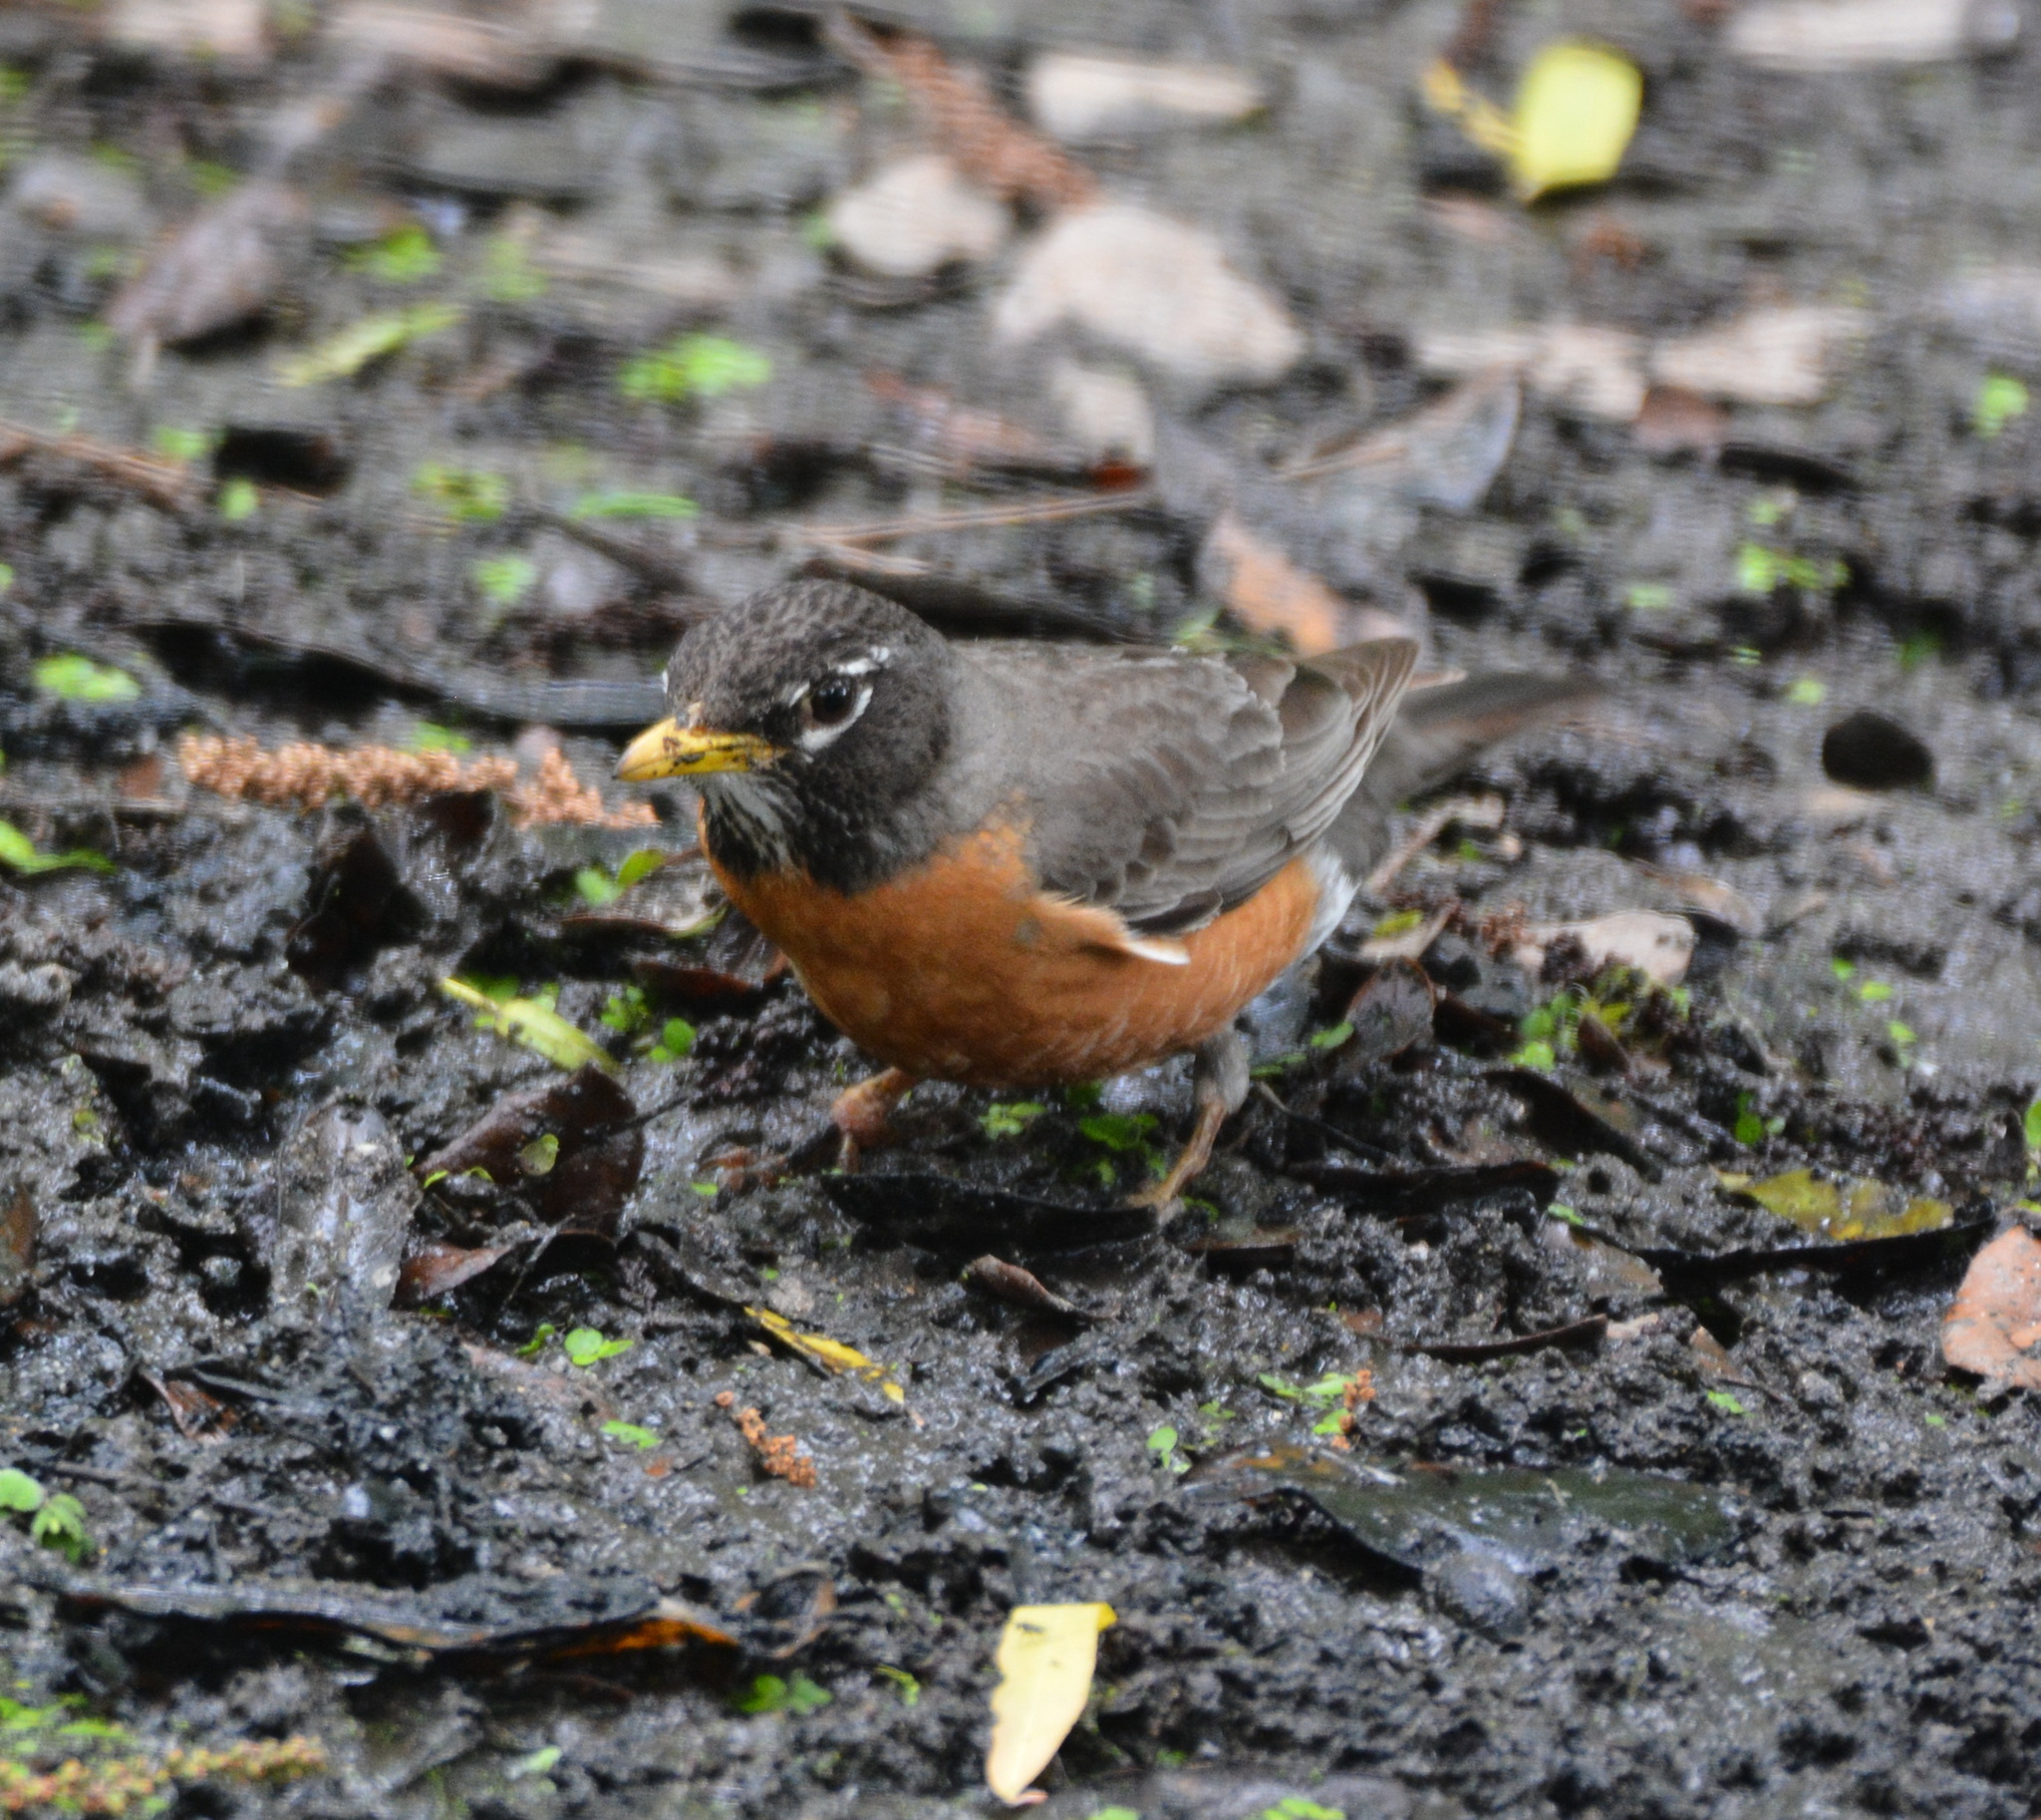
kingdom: Animalia
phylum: Chordata
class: Aves
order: Passeriformes
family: Turdidae
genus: Turdus
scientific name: Turdus migratorius
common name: American robin
